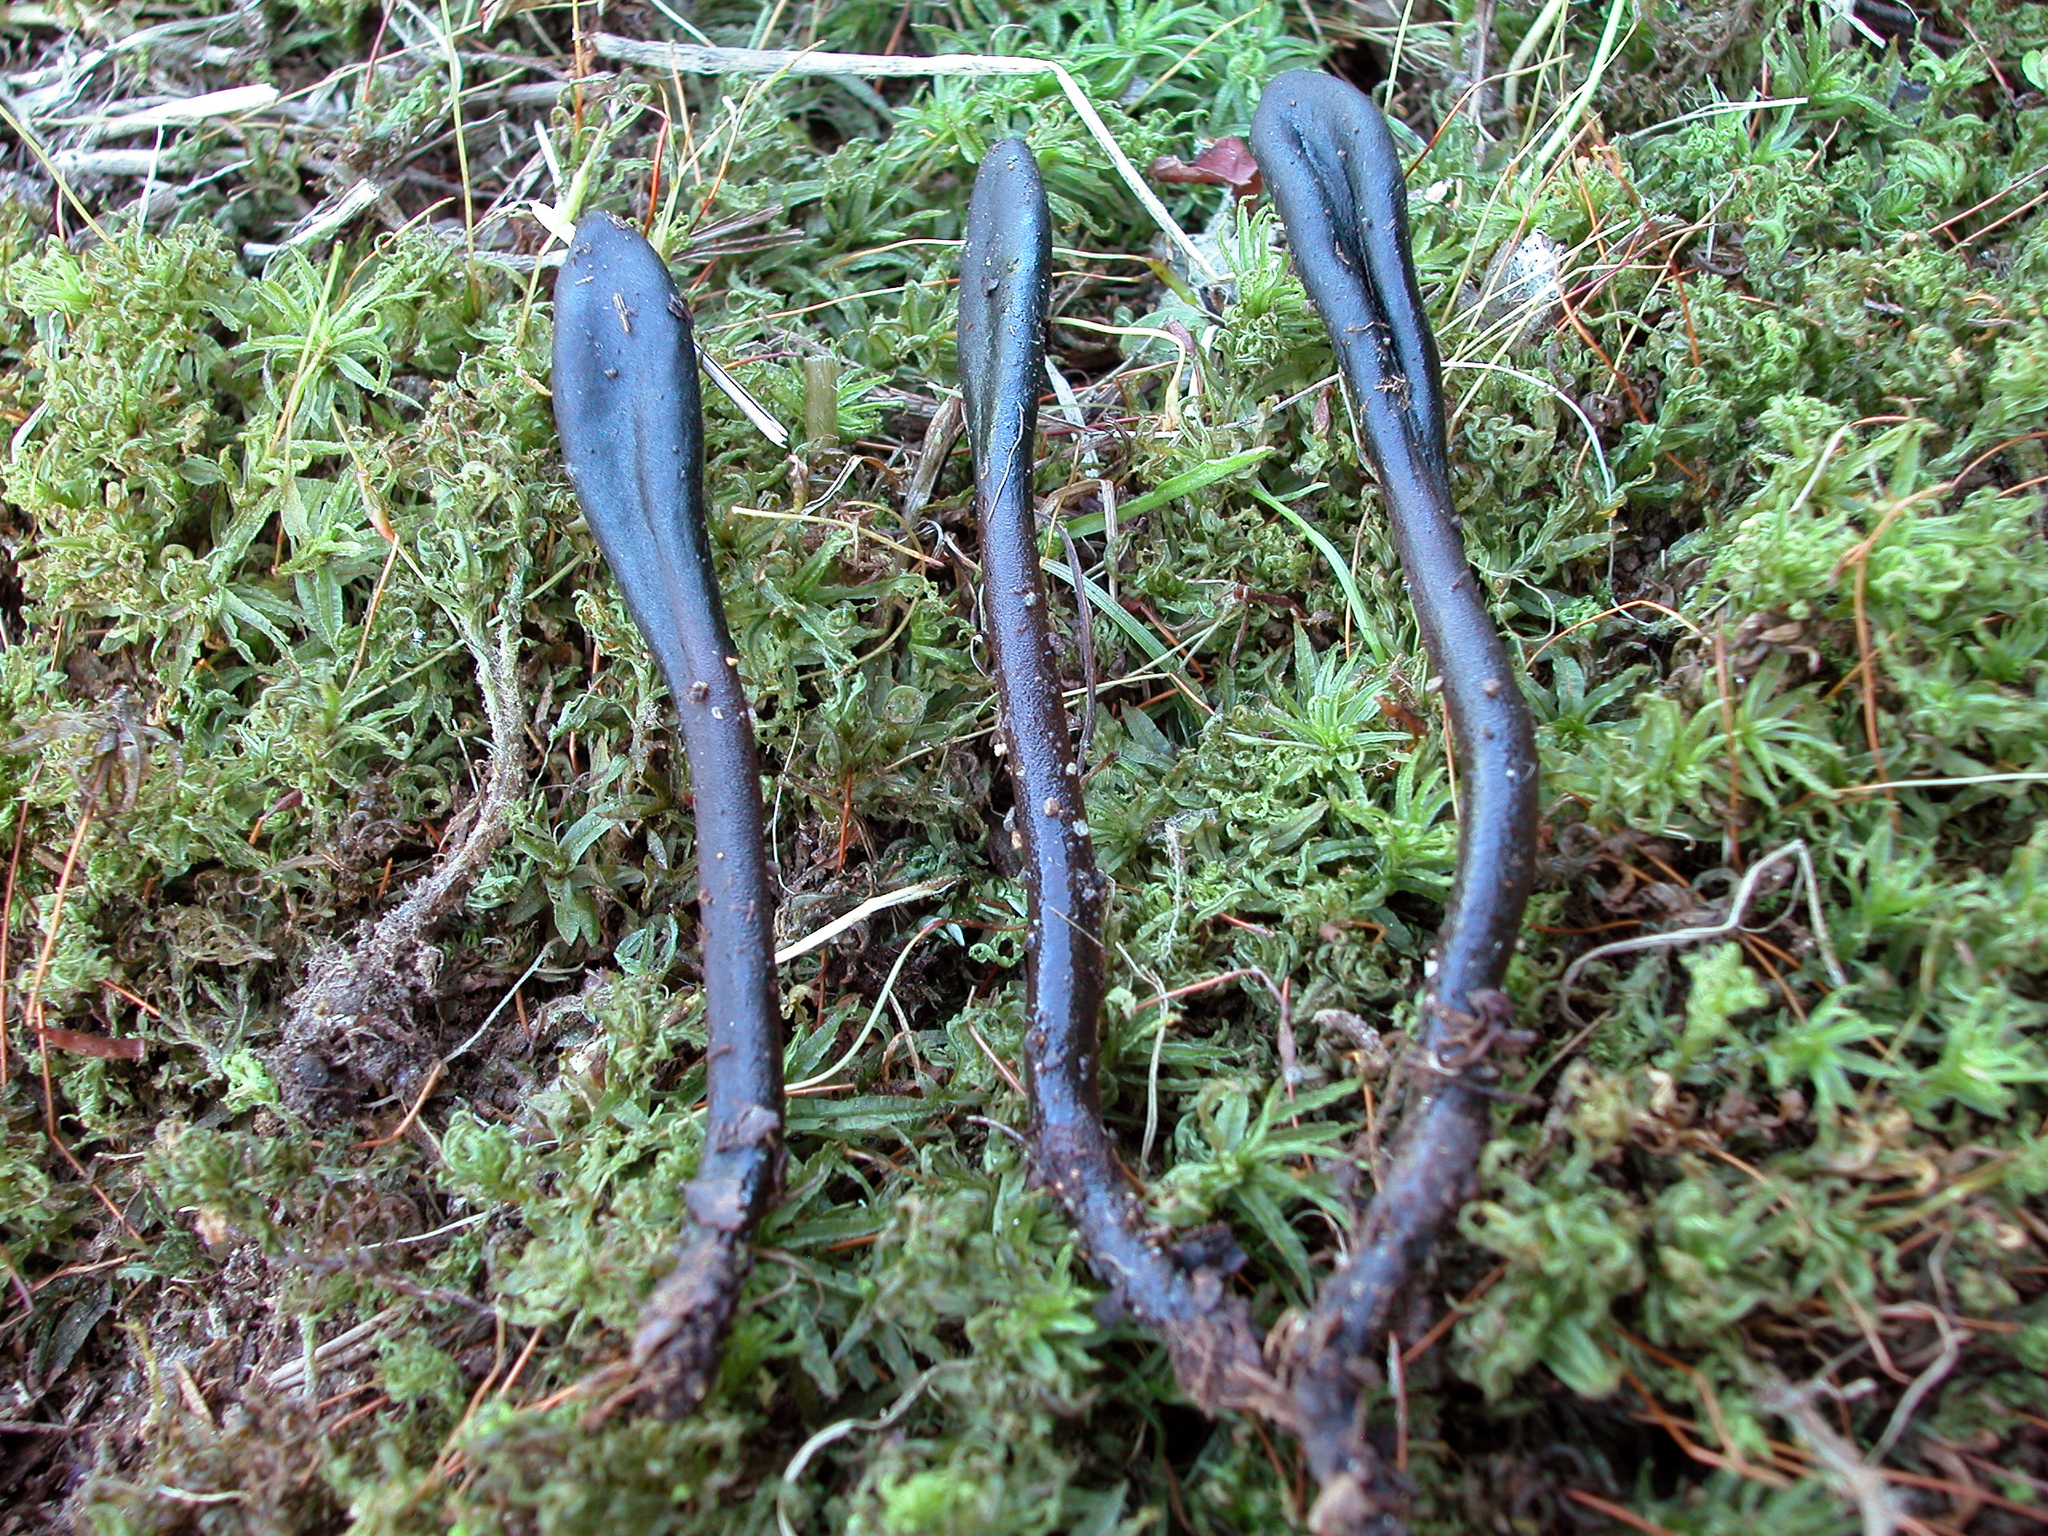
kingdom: Fungi
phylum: Ascomycota
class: Geoglossomycetes
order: Geoglossales
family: Geoglossaceae
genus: Glutinoglossum
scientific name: Glutinoglossum orientale
